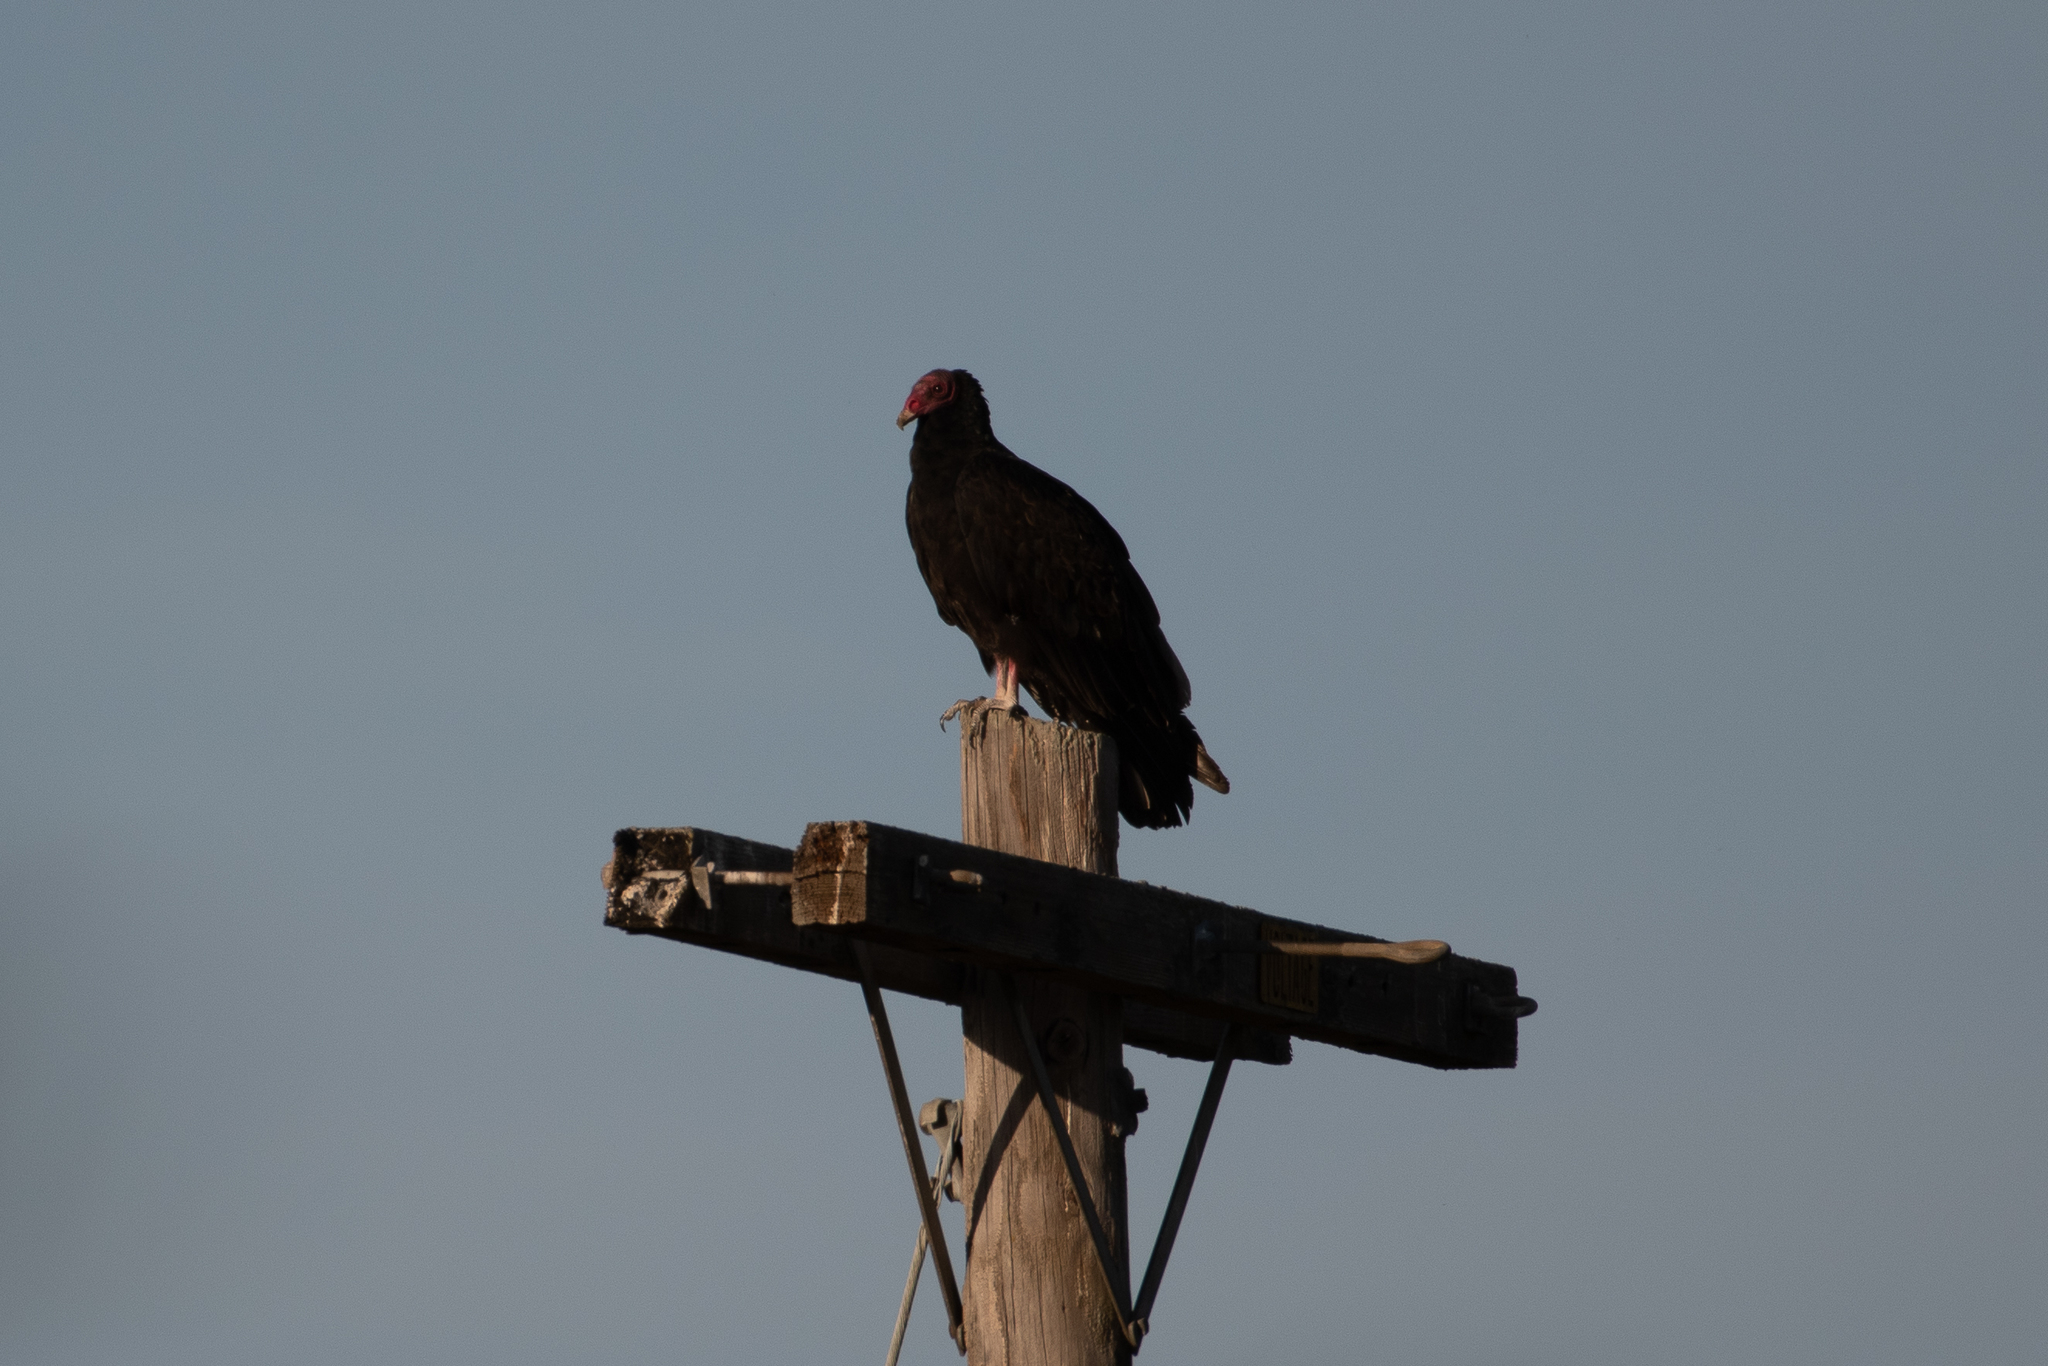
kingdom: Animalia
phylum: Chordata
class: Aves
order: Accipitriformes
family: Cathartidae
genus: Cathartes
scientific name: Cathartes aura
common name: Turkey vulture
